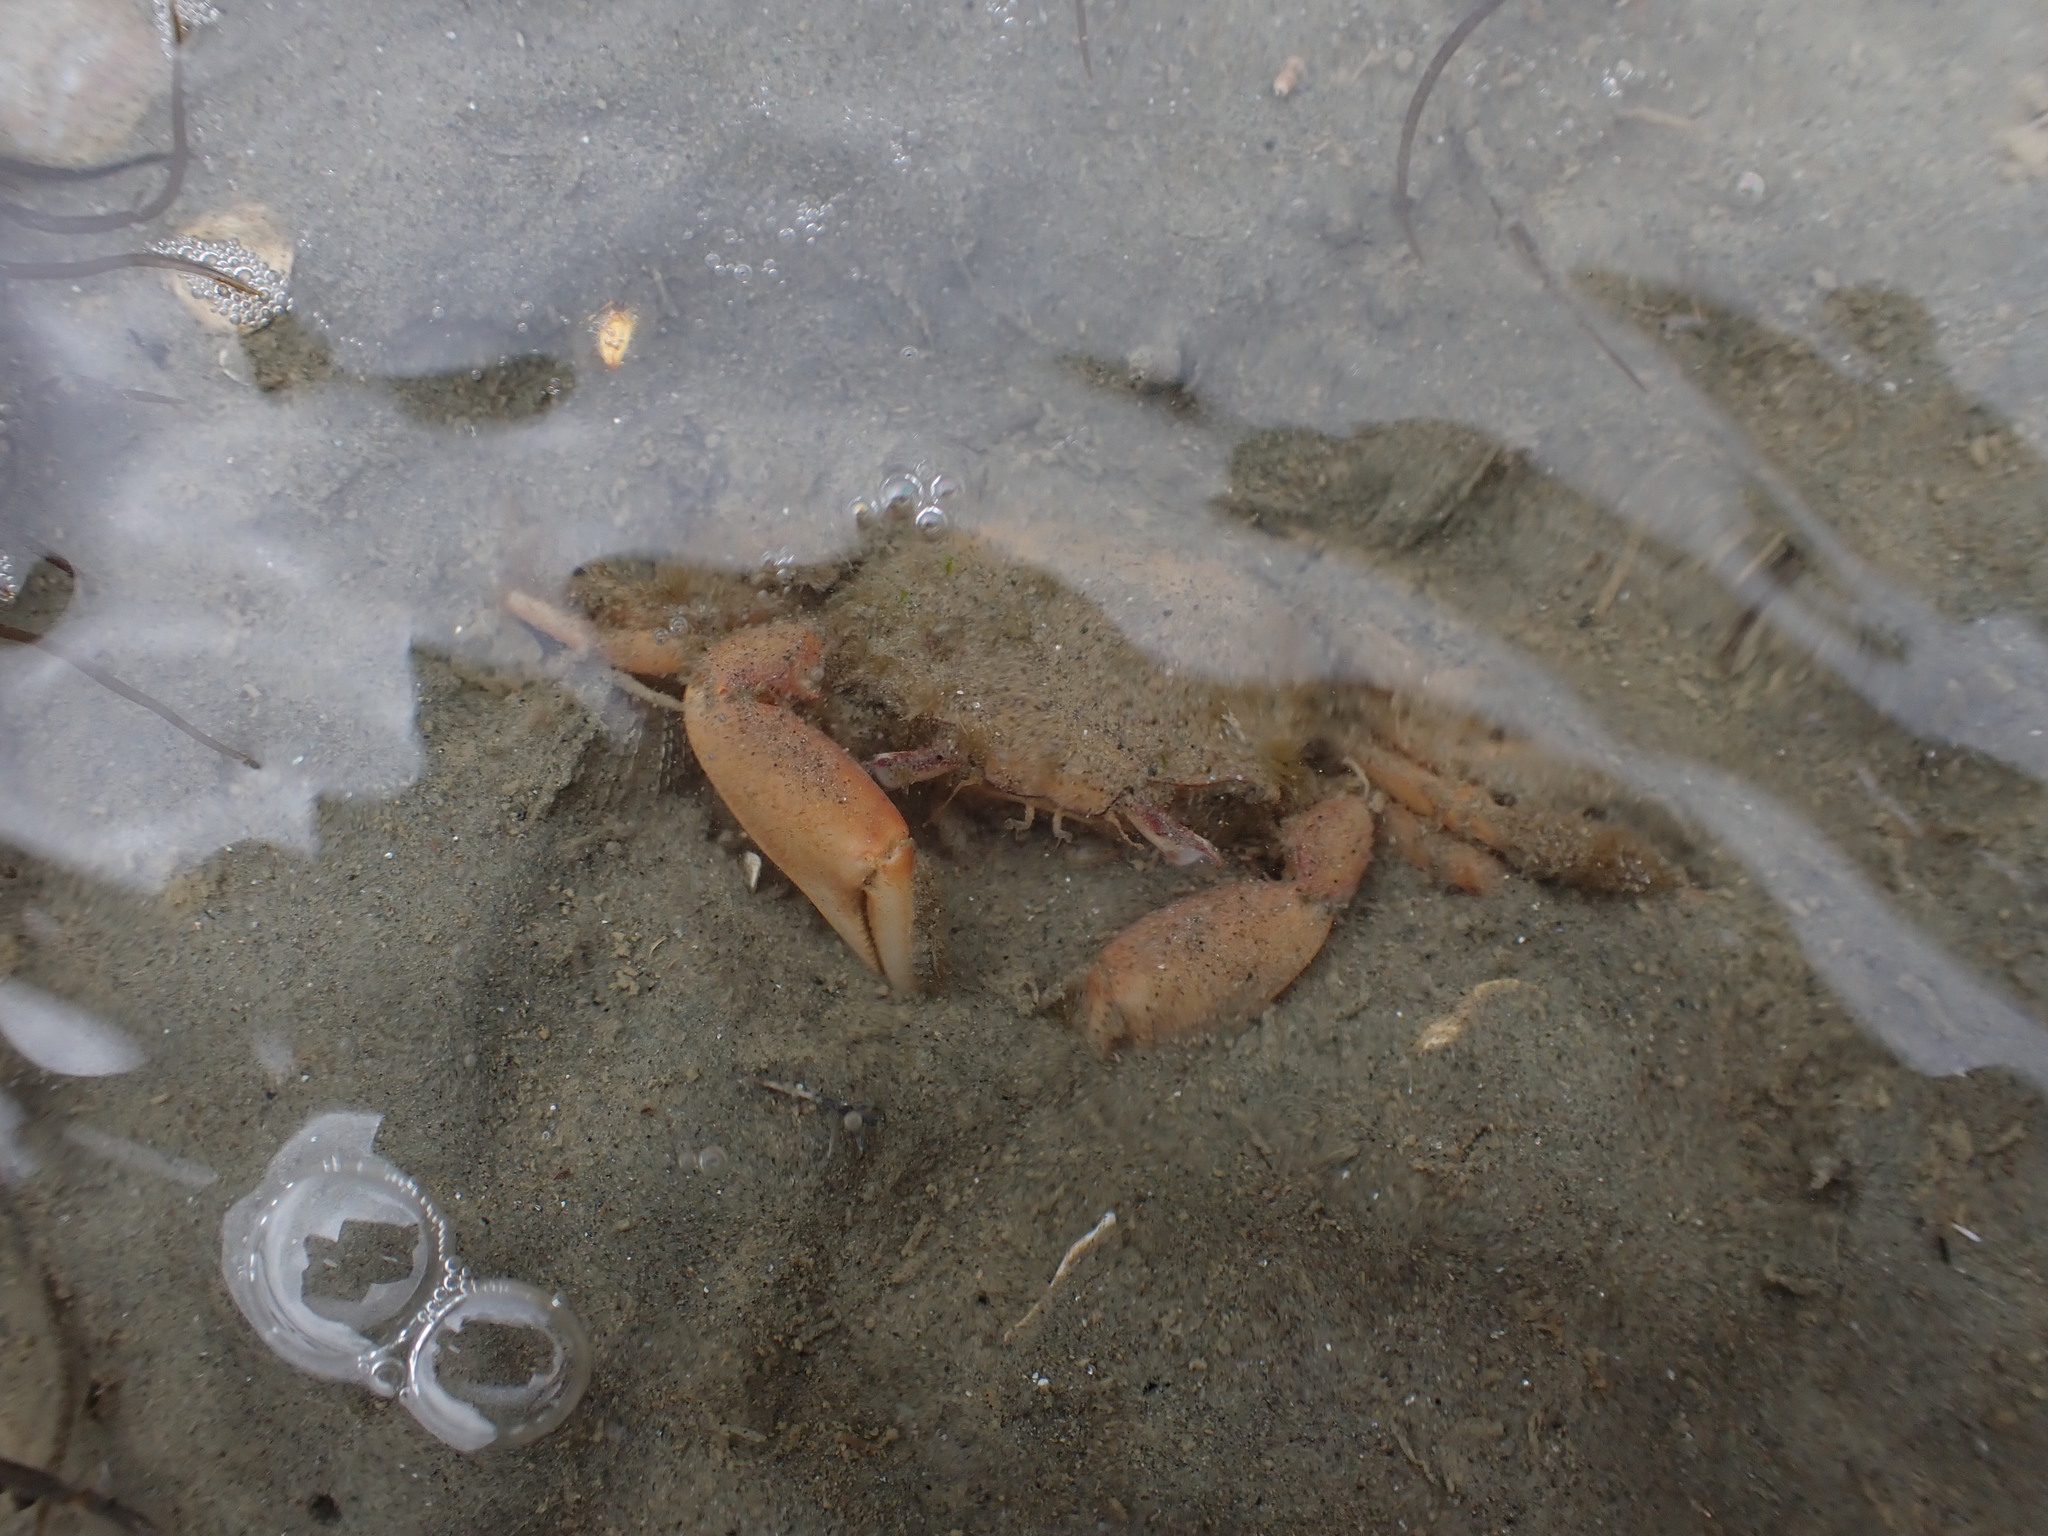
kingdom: Animalia
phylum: Arthropoda
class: Malacostraca
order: Decapoda
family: Macrophthalmidae
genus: Hemiplax
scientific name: Hemiplax hirtipes
